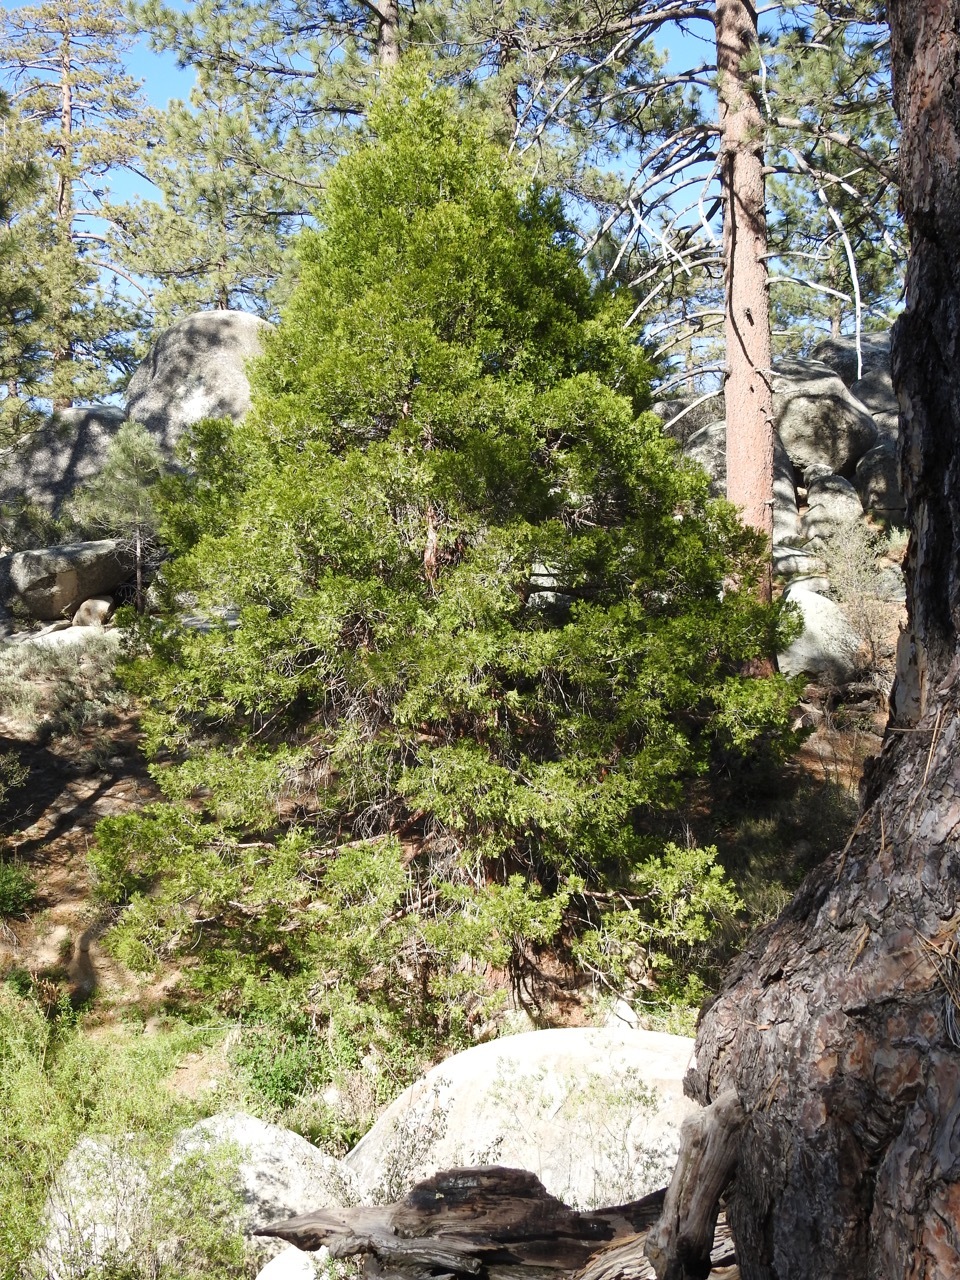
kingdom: Plantae
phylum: Tracheophyta
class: Pinopsida
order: Pinales
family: Cupressaceae
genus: Calocedrus
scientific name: Calocedrus decurrens
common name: Californian incense-cedar
